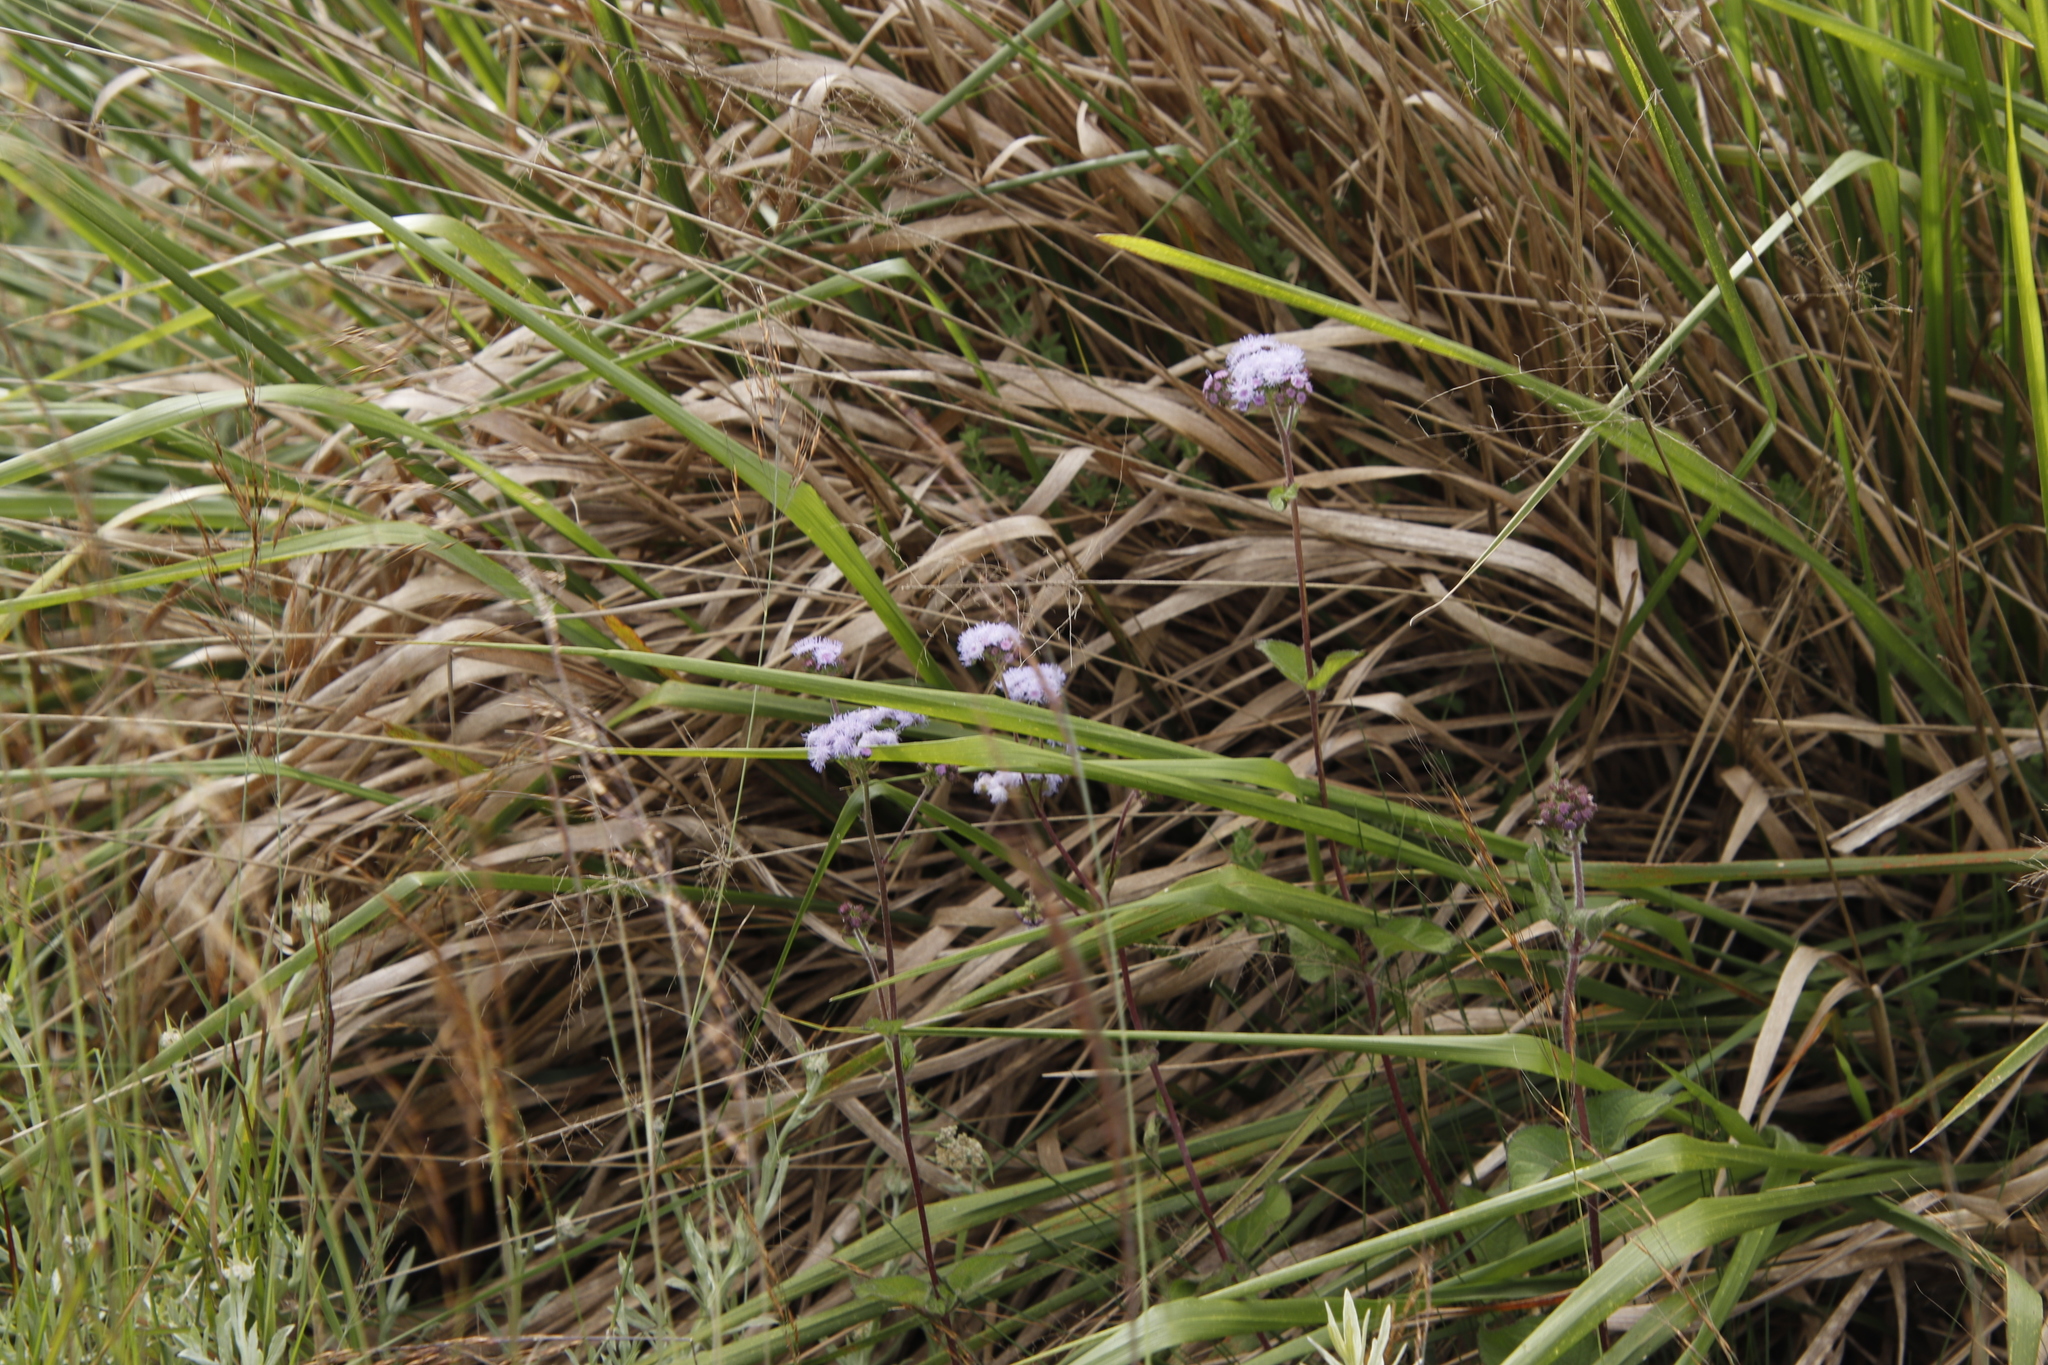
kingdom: Plantae
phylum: Tracheophyta
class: Magnoliopsida
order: Asterales
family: Asteraceae
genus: Ageratum
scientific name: Ageratum houstonianum
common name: Bluemink
